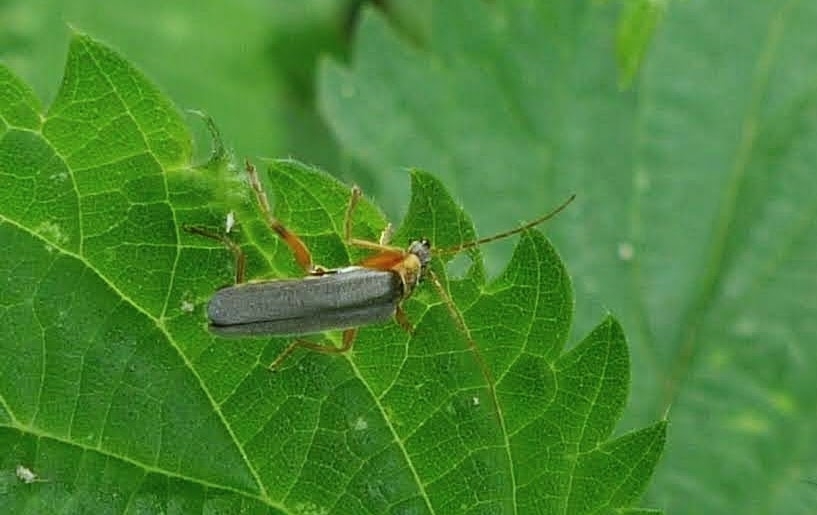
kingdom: Animalia
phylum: Arthropoda
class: Insecta
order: Coleoptera
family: Cantharidae
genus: Cantharis
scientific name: Cantharis nigricans
